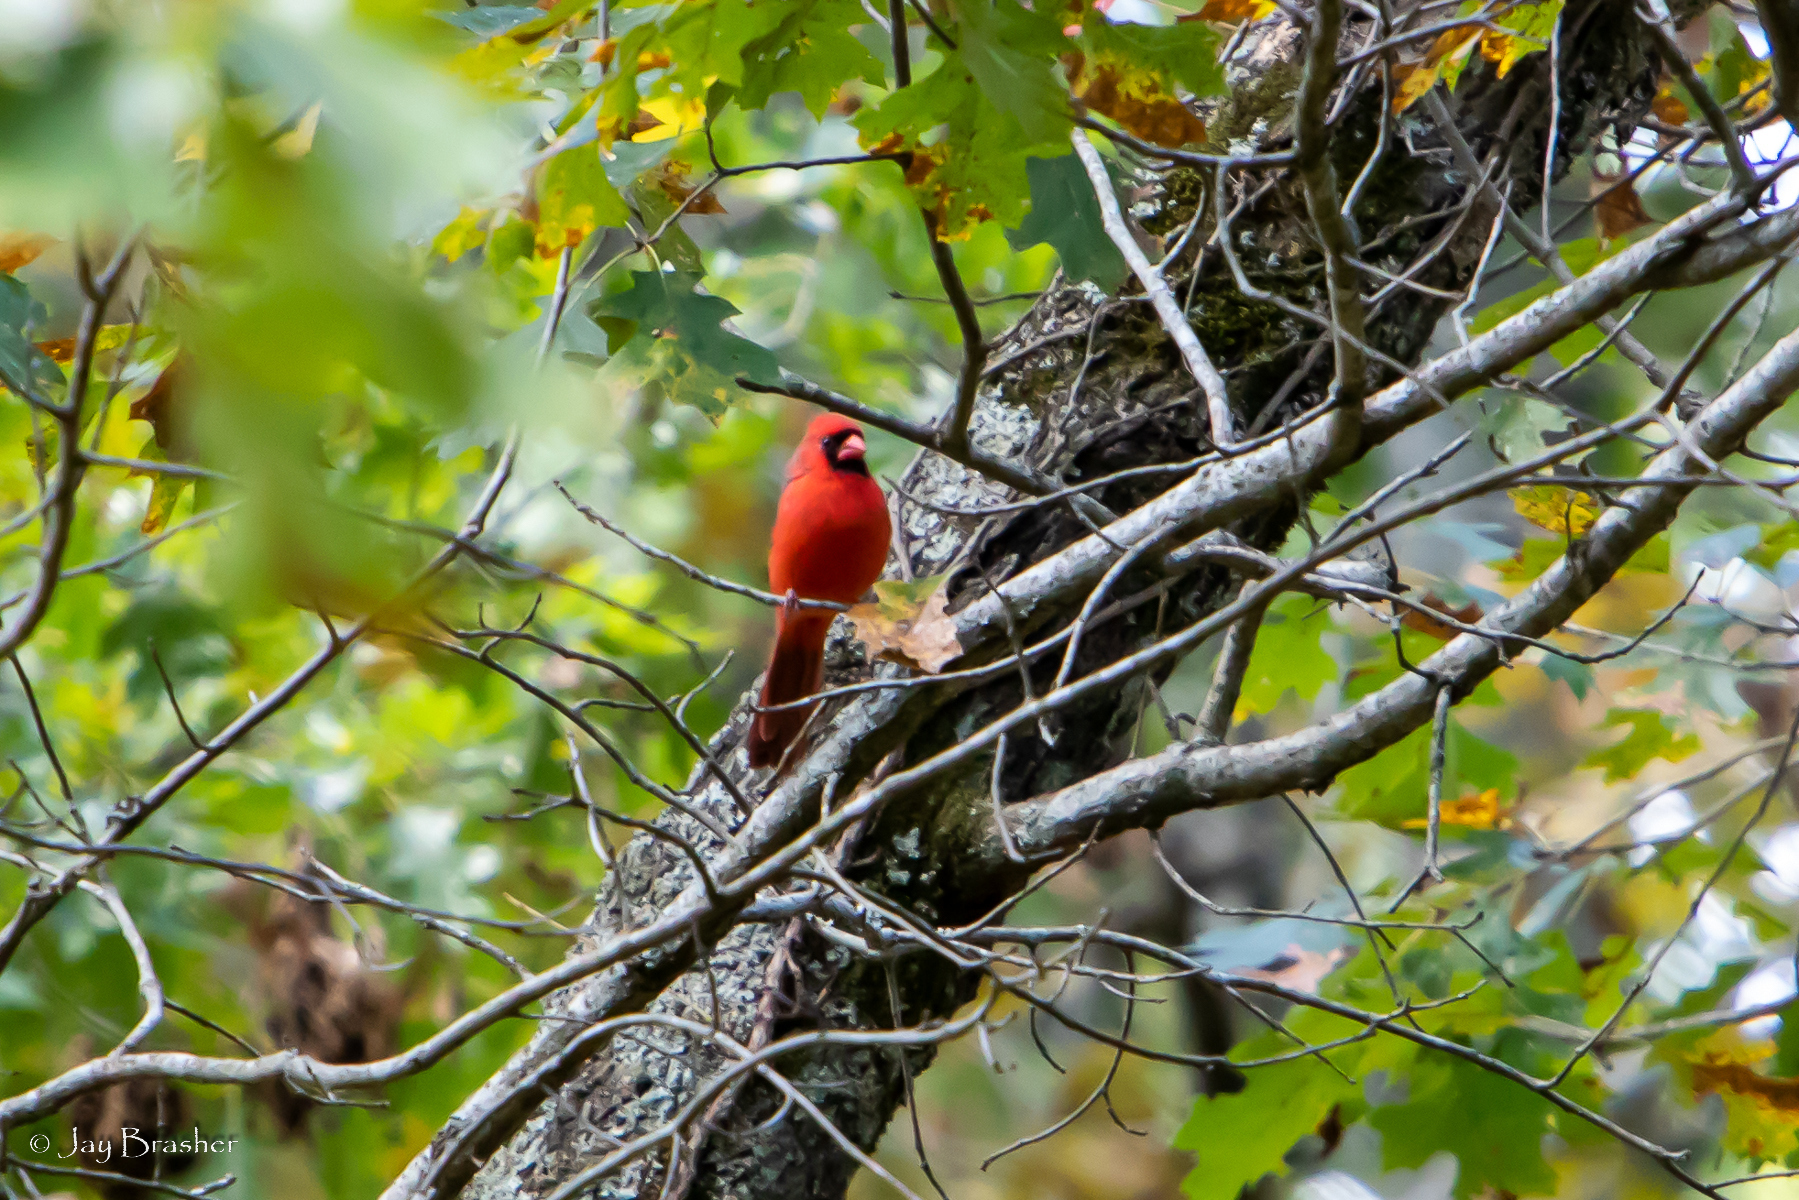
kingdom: Animalia
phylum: Chordata
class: Aves
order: Passeriformes
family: Cardinalidae
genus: Cardinalis
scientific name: Cardinalis cardinalis
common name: Northern cardinal
